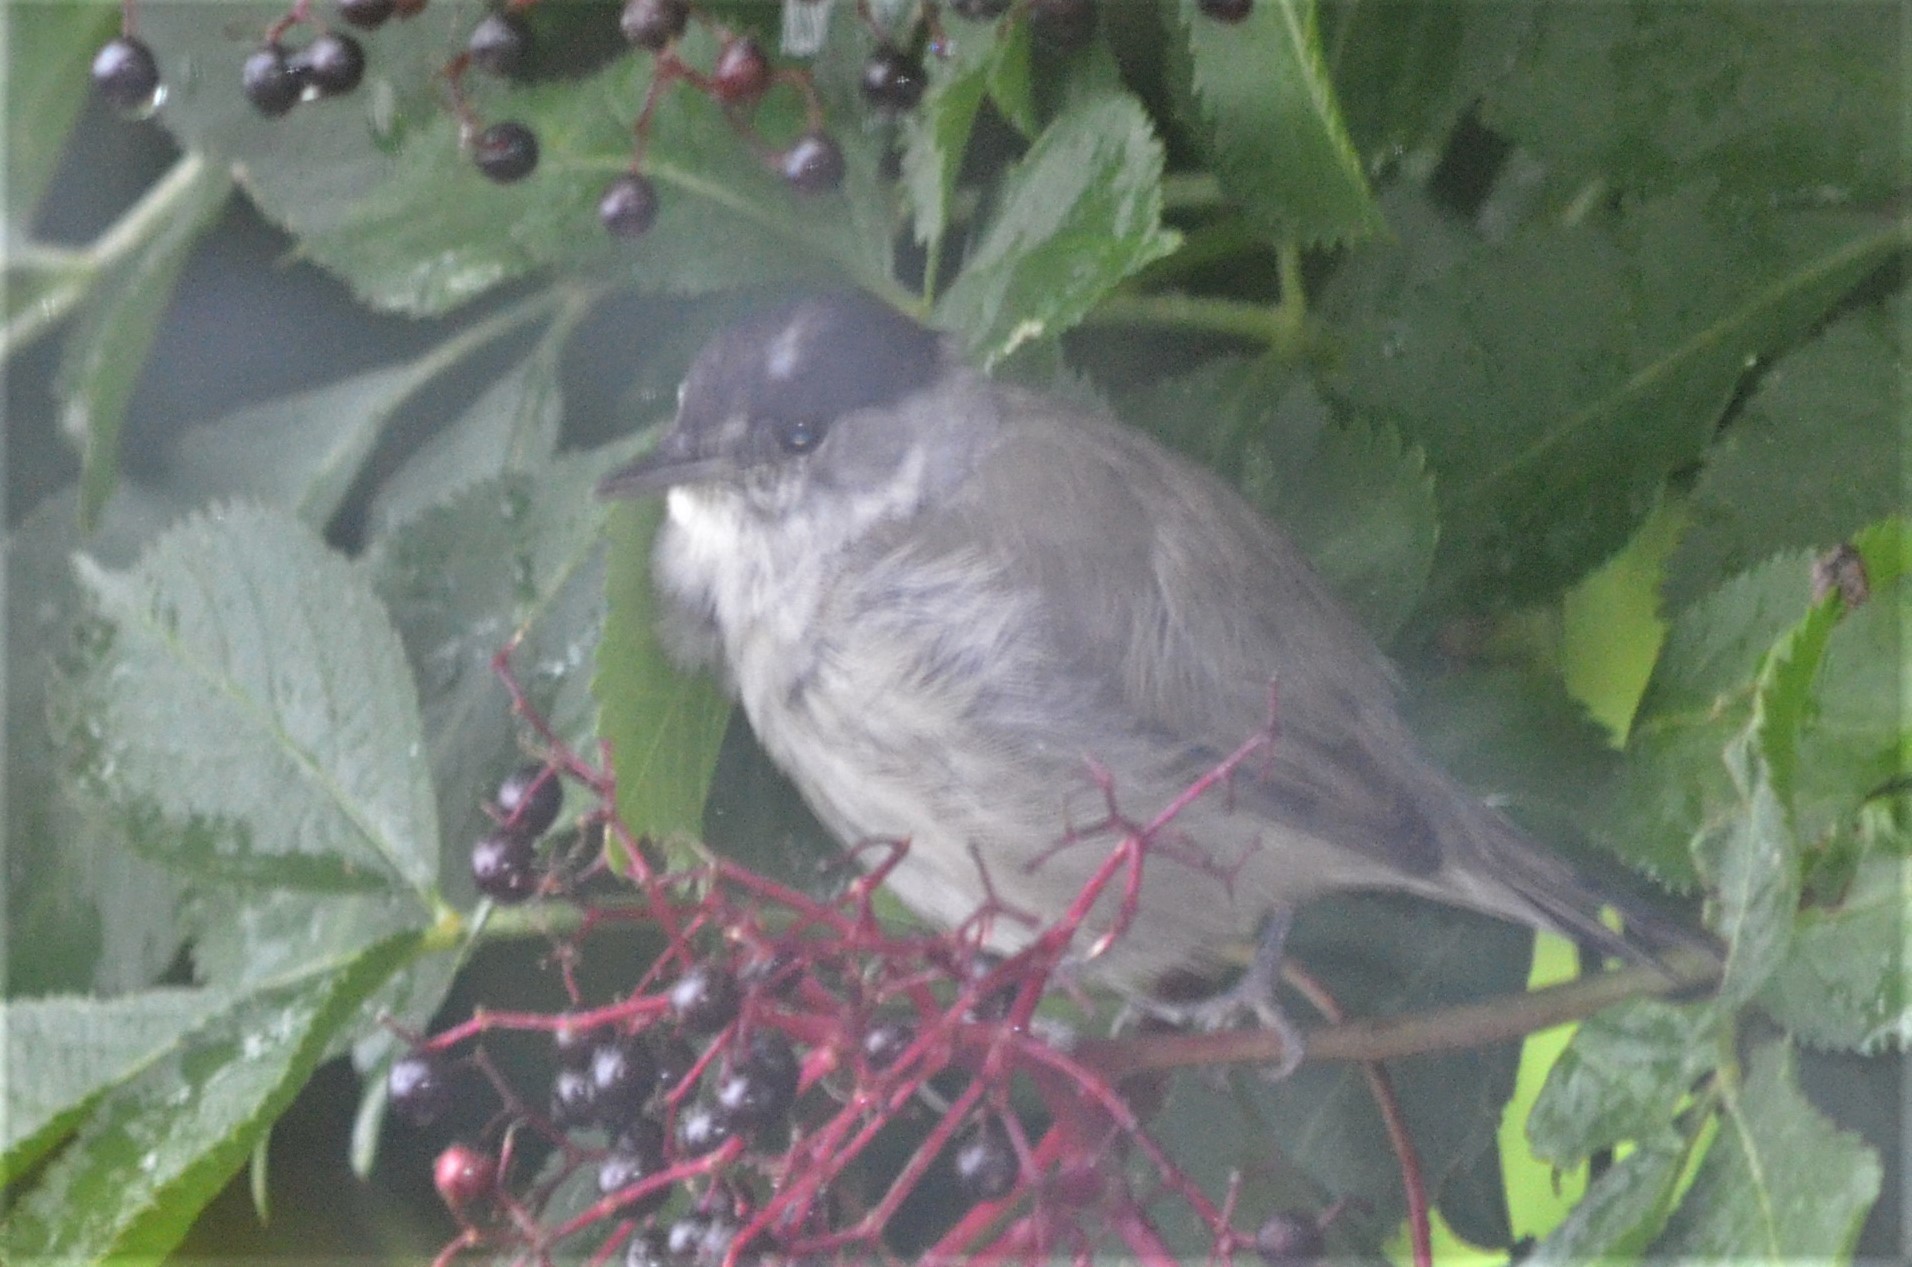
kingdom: Animalia
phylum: Chordata
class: Aves
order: Passeriformes
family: Sylviidae
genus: Sylvia
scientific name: Sylvia atricapilla
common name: Eurasian blackcap
